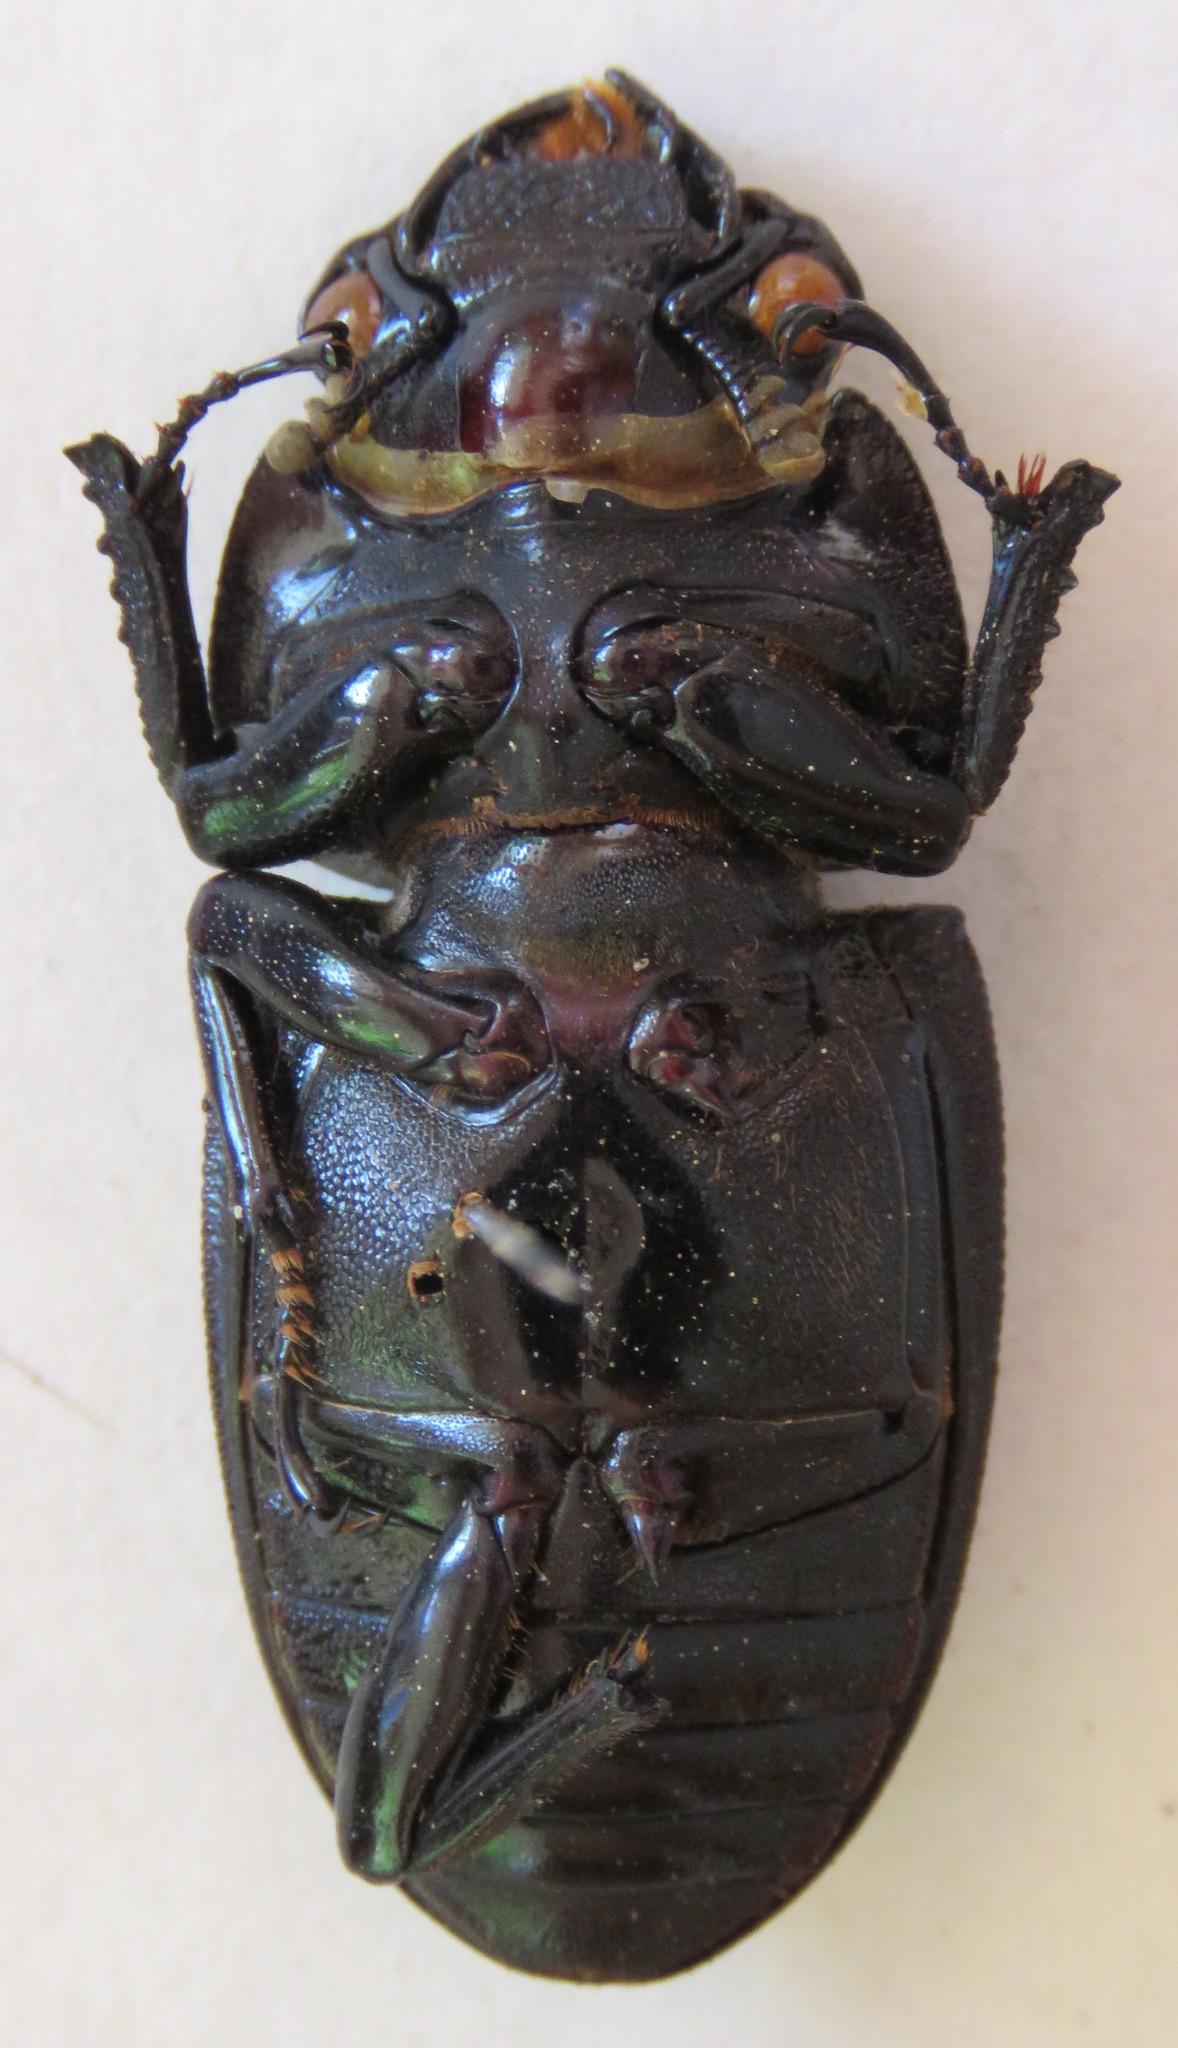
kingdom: Animalia
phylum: Arthropoda
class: Insecta
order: Coleoptera
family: Lucanidae
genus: Dorcus
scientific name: Dorcus curvidens
